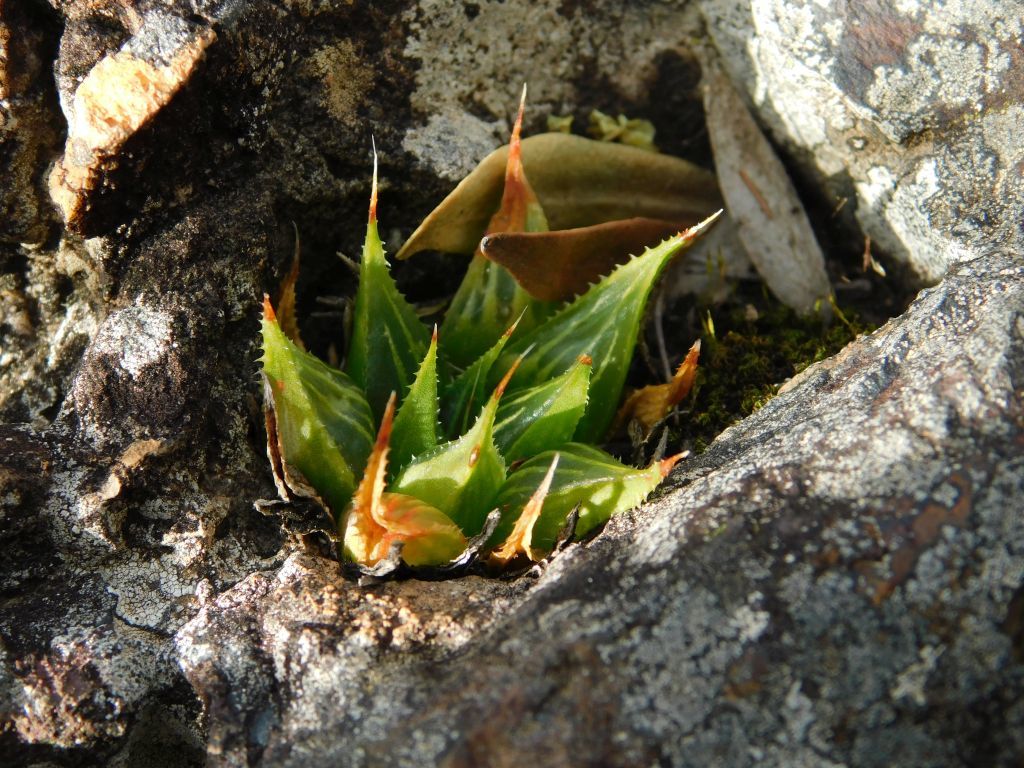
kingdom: Plantae
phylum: Tracheophyta
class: Liliopsida
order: Asparagales
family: Asphodelaceae
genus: Haworthia
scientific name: Haworthia mirabilis
